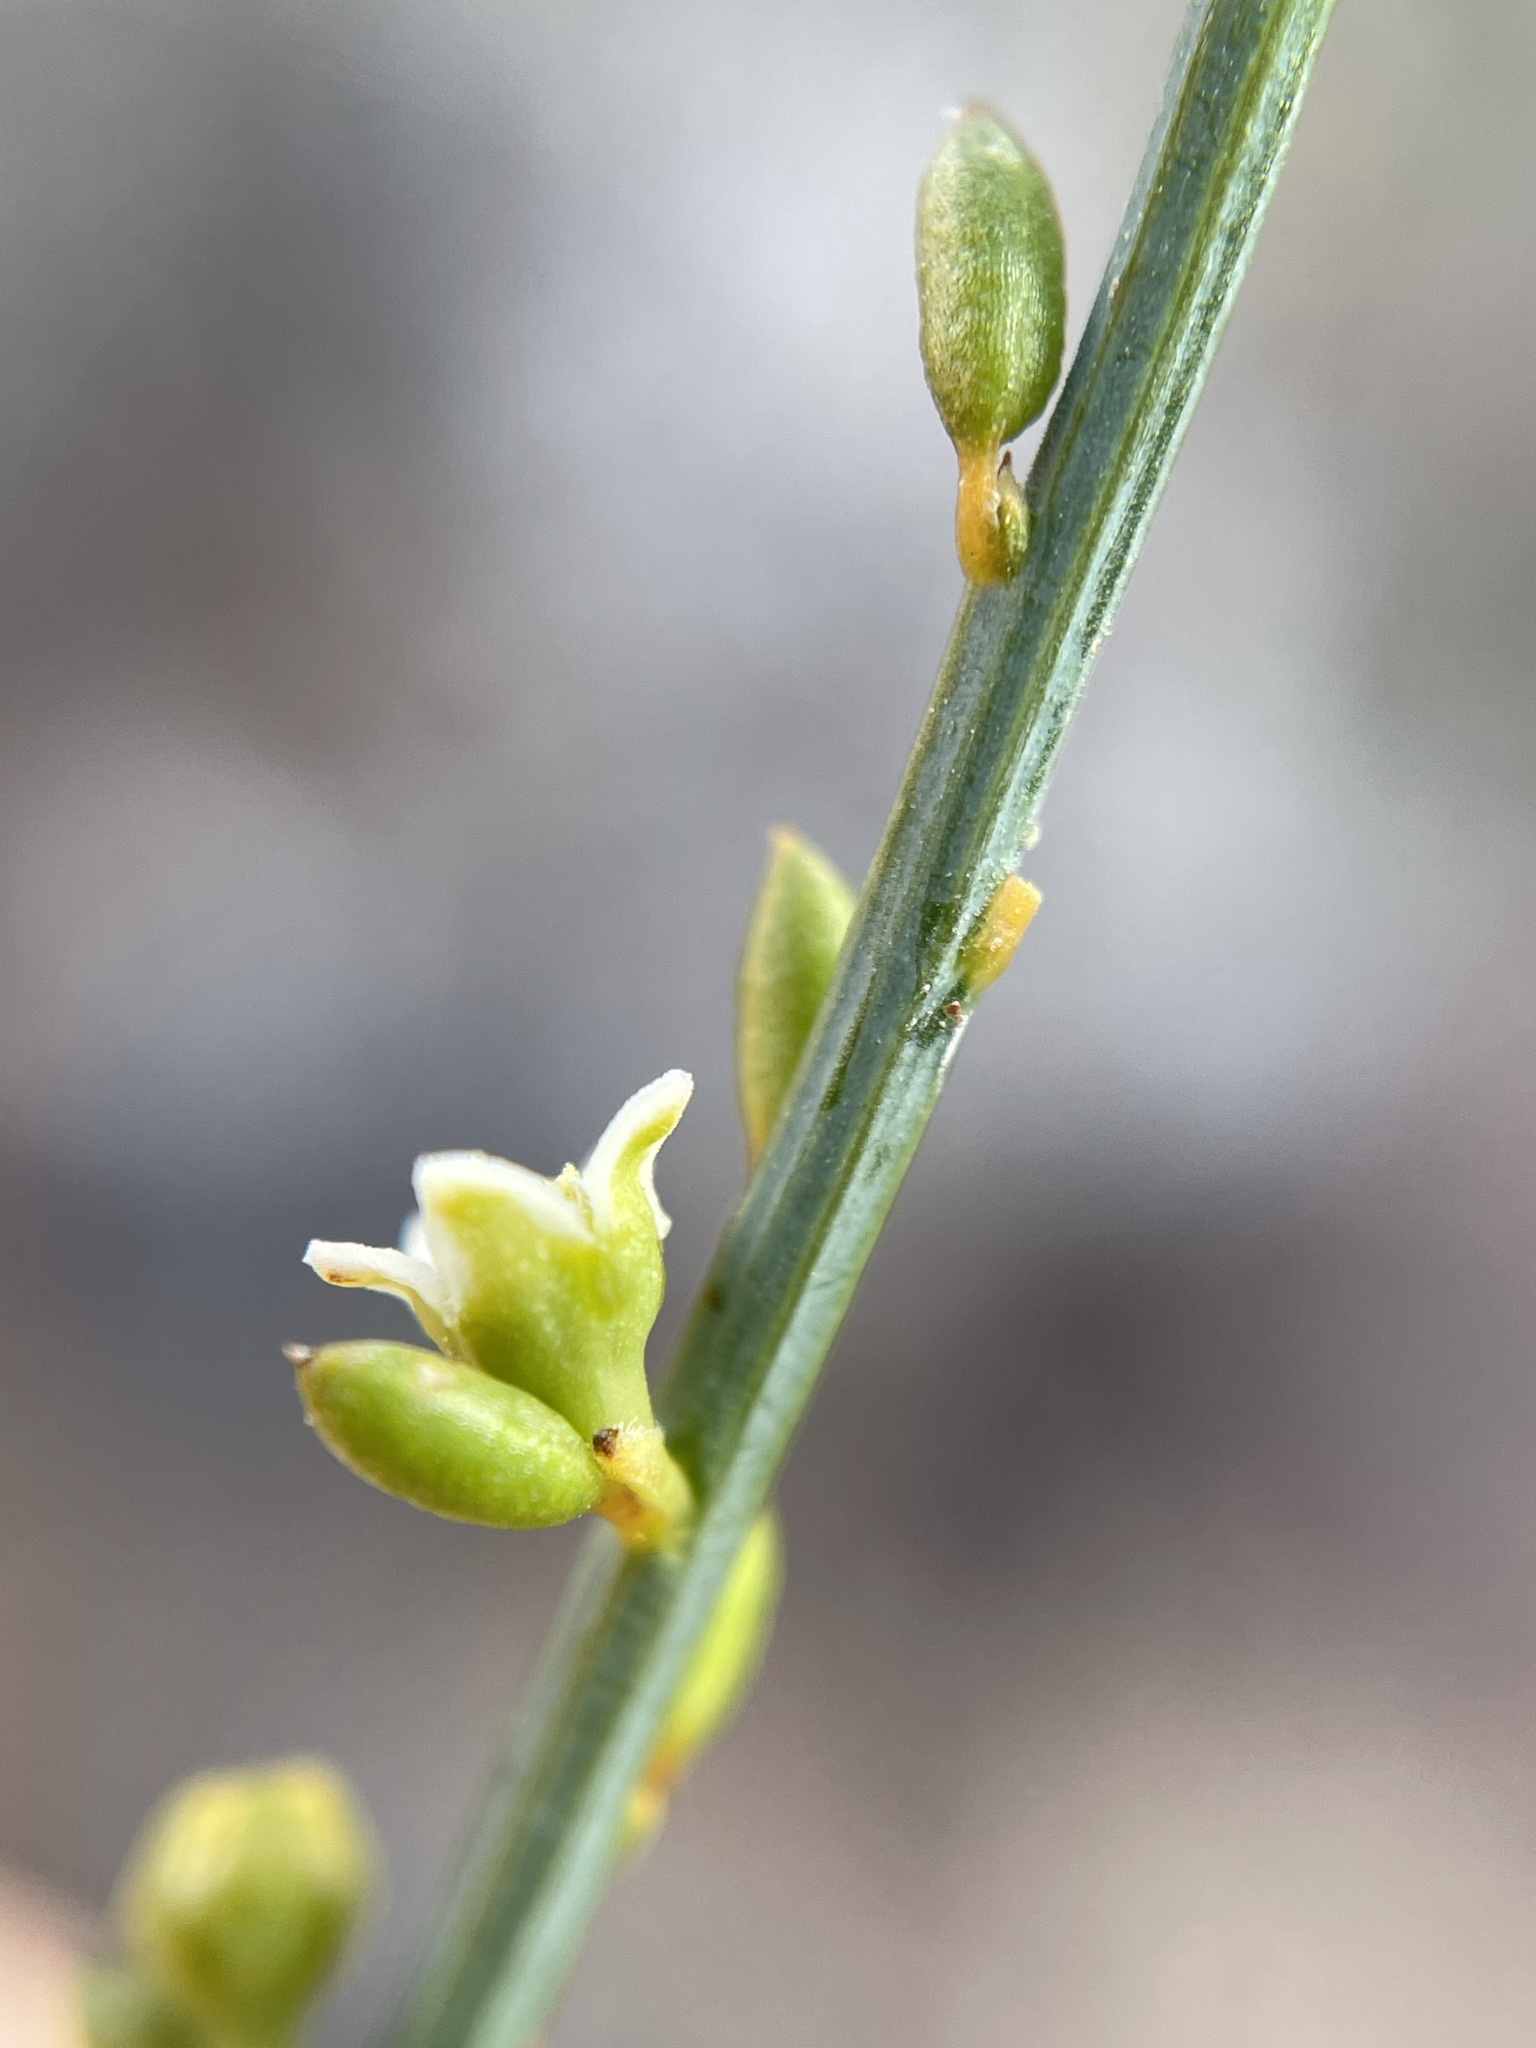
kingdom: Plantae
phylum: Tracheophyta
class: Magnoliopsida
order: Santalales
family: Thesiaceae
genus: Lacomucinaea
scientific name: Lacomucinaea lineata
